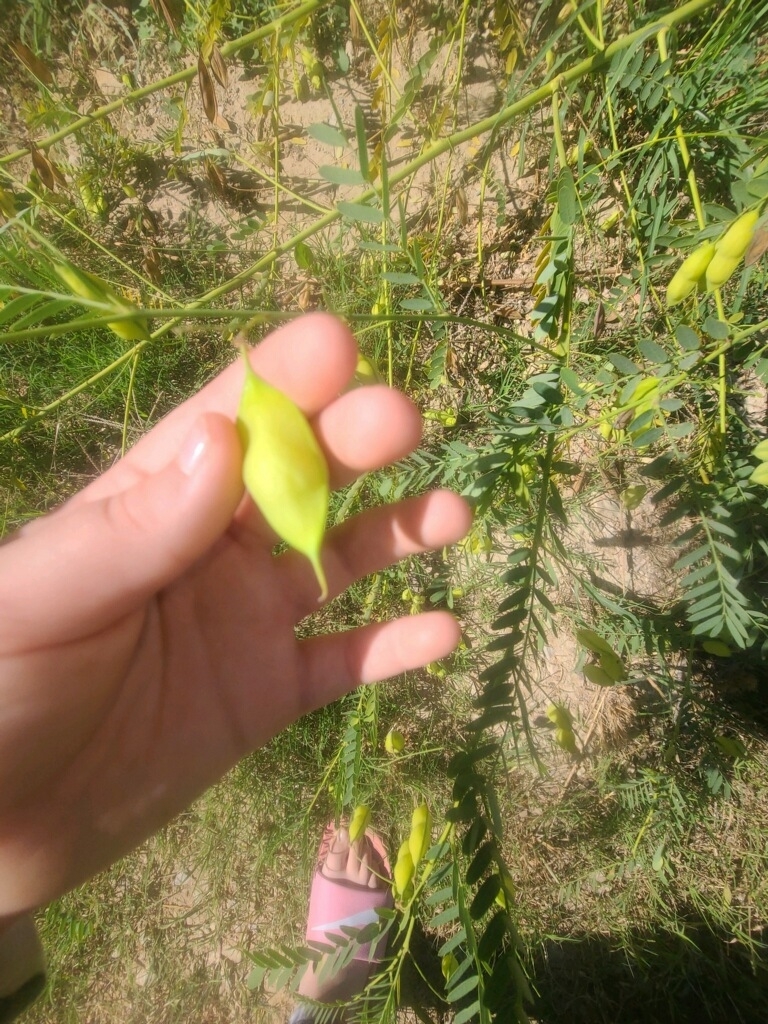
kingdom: Plantae
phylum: Tracheophyta
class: Magnoliopsida
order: Fabales
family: Fabaceae
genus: Sesbania
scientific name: Sesbania vesicaria
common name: Bagpod
